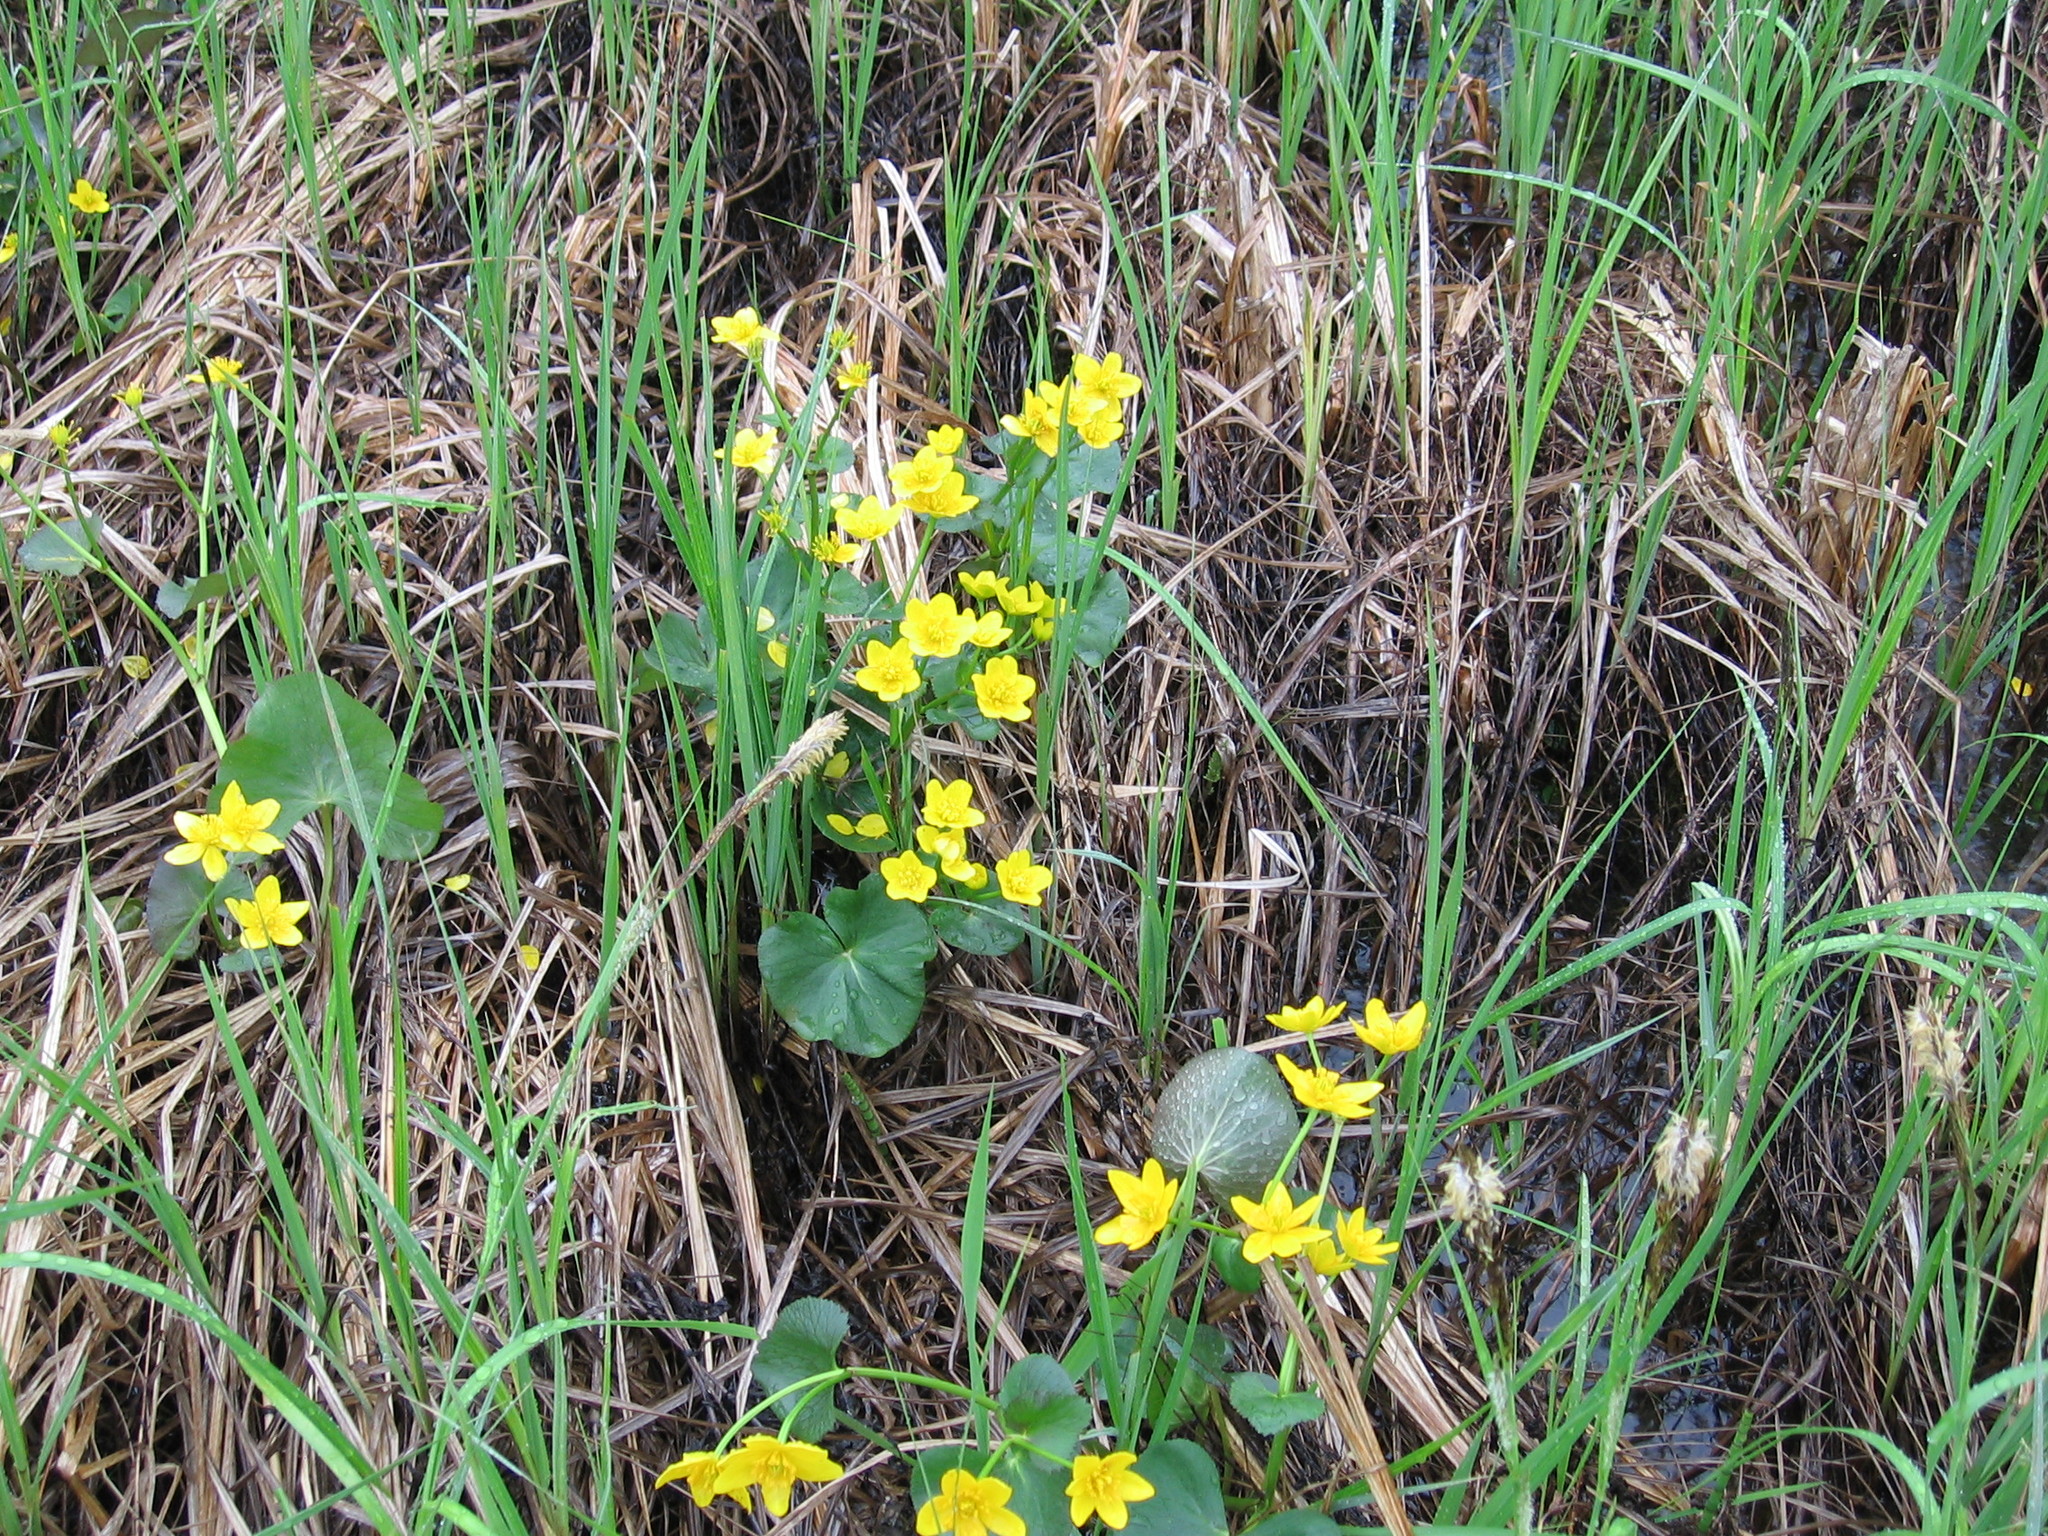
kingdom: Plantae
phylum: Tracheophyta
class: Magnoliopsida
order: Ranunculales
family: Ranunculaceae
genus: Caltha
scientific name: Caltha palustris
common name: Marsh marigold
